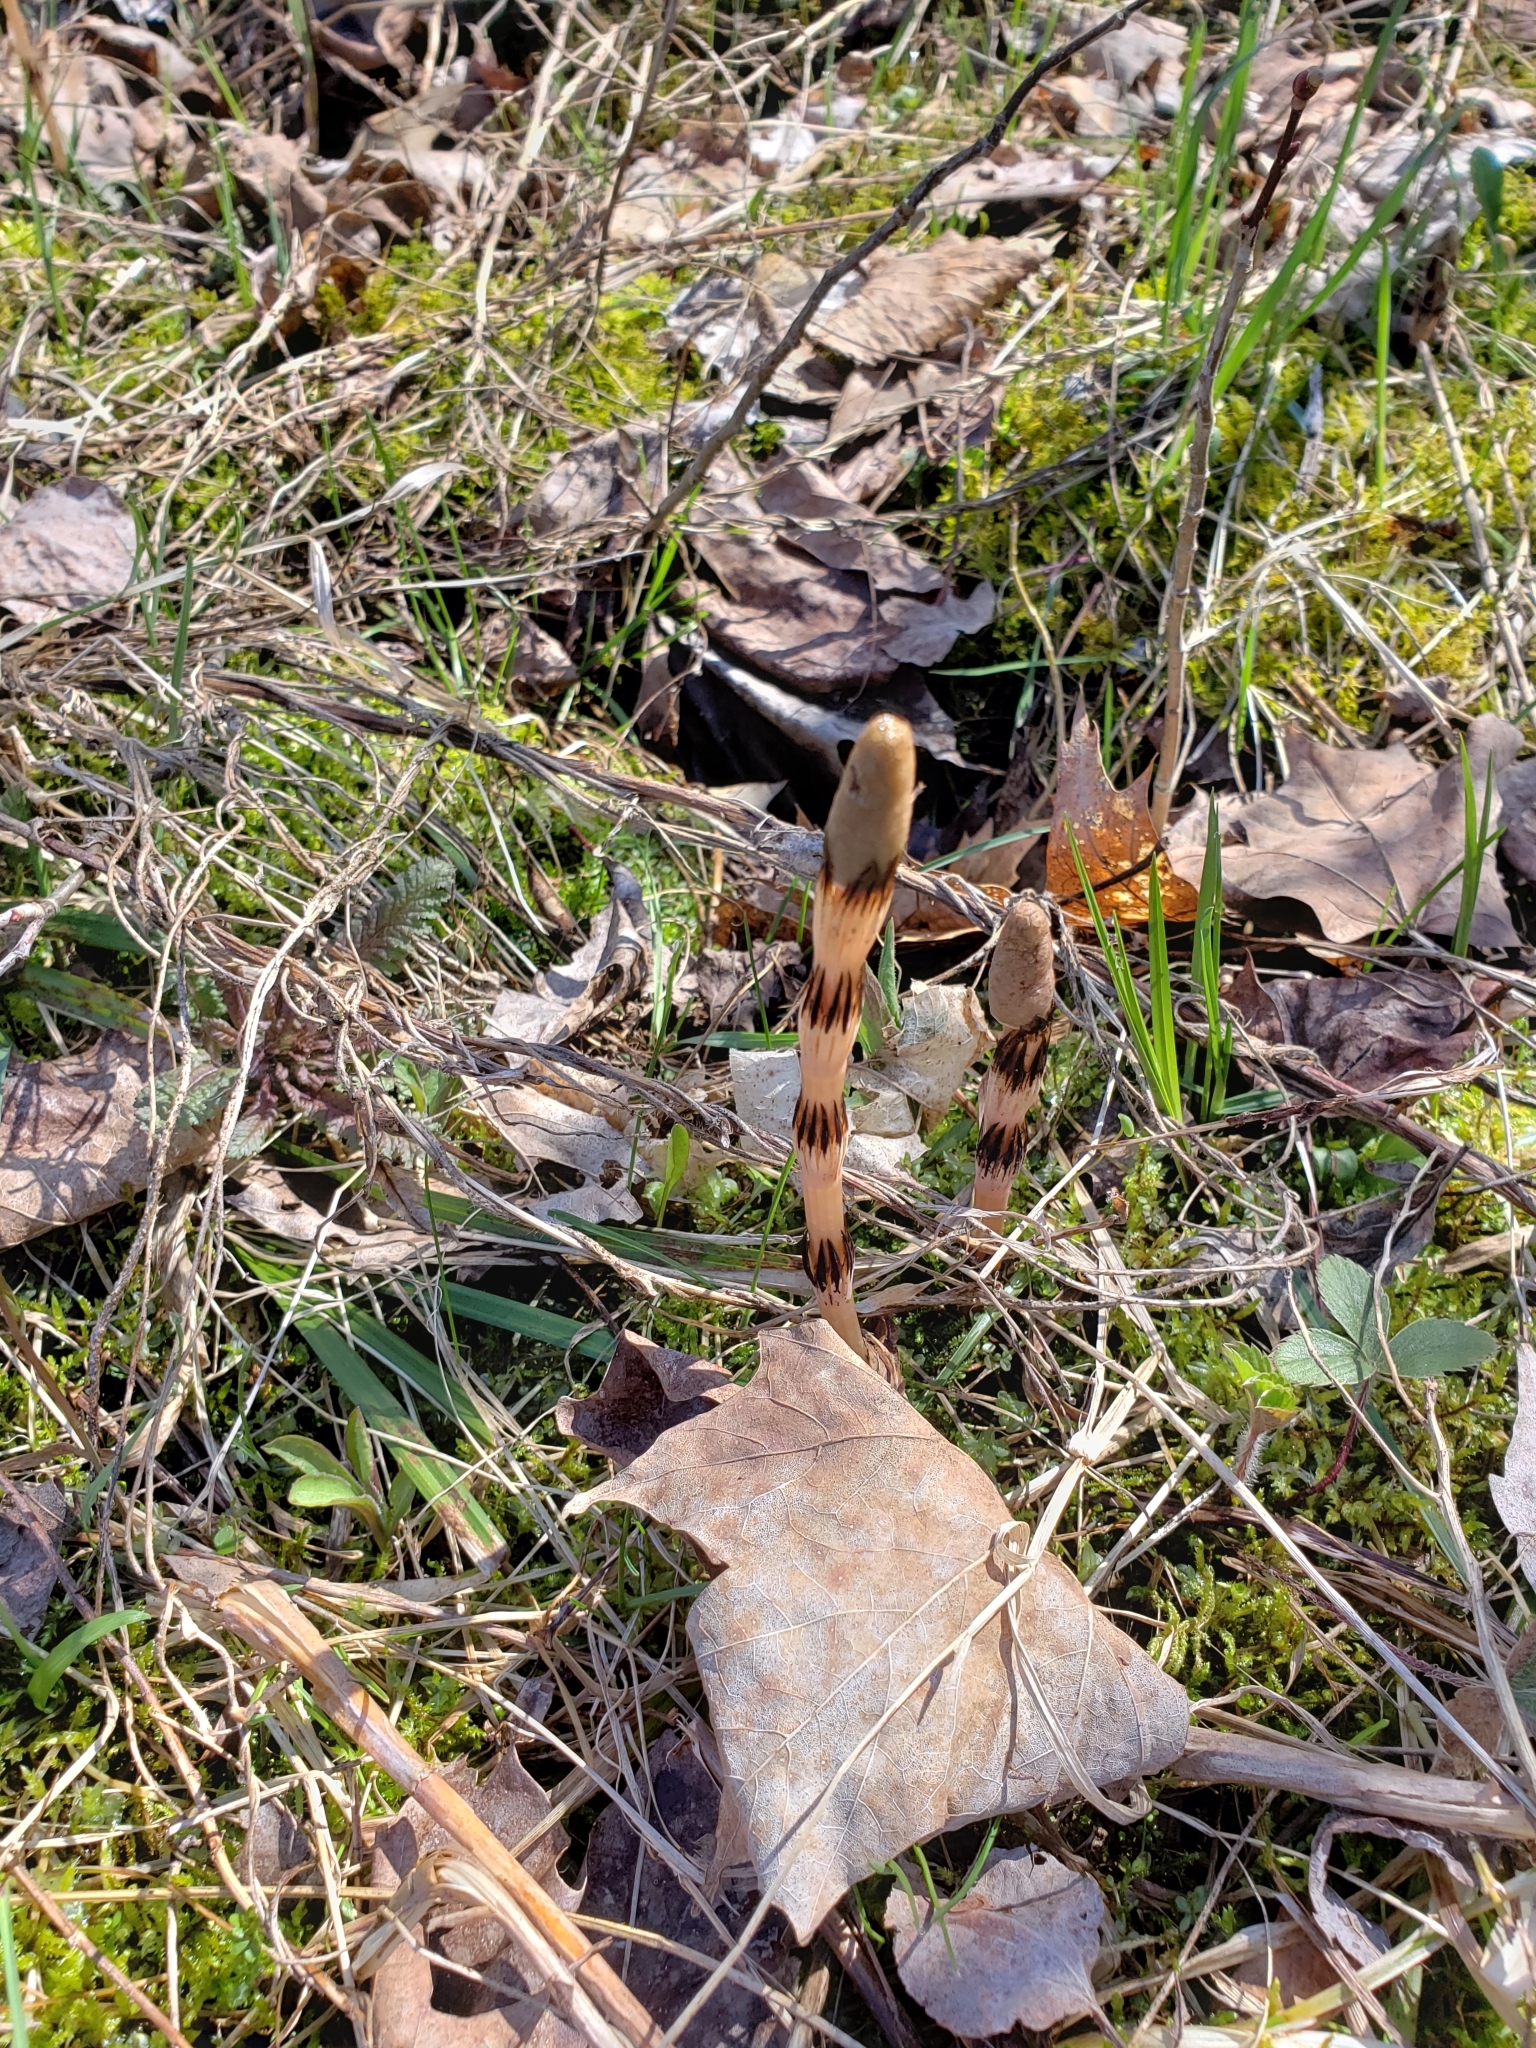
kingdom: Plantae
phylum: Tracheophyta
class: Polypodiopsida
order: Equisetales
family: Equisetaceae
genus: Equisetum
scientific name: Equisetum arvense
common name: Field horsetail
